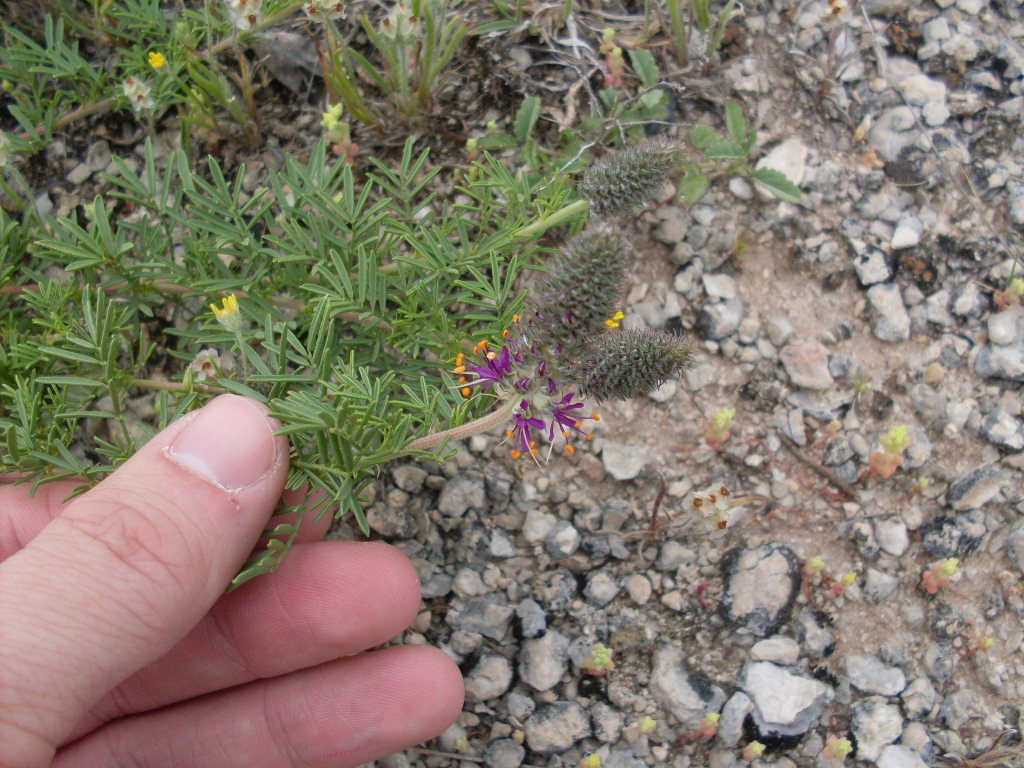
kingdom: Plantae
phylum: Tracheophyta
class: Magnoliopsida
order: Fabales
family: Fabaceae
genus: Dalea
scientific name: Dalea reverchonii
